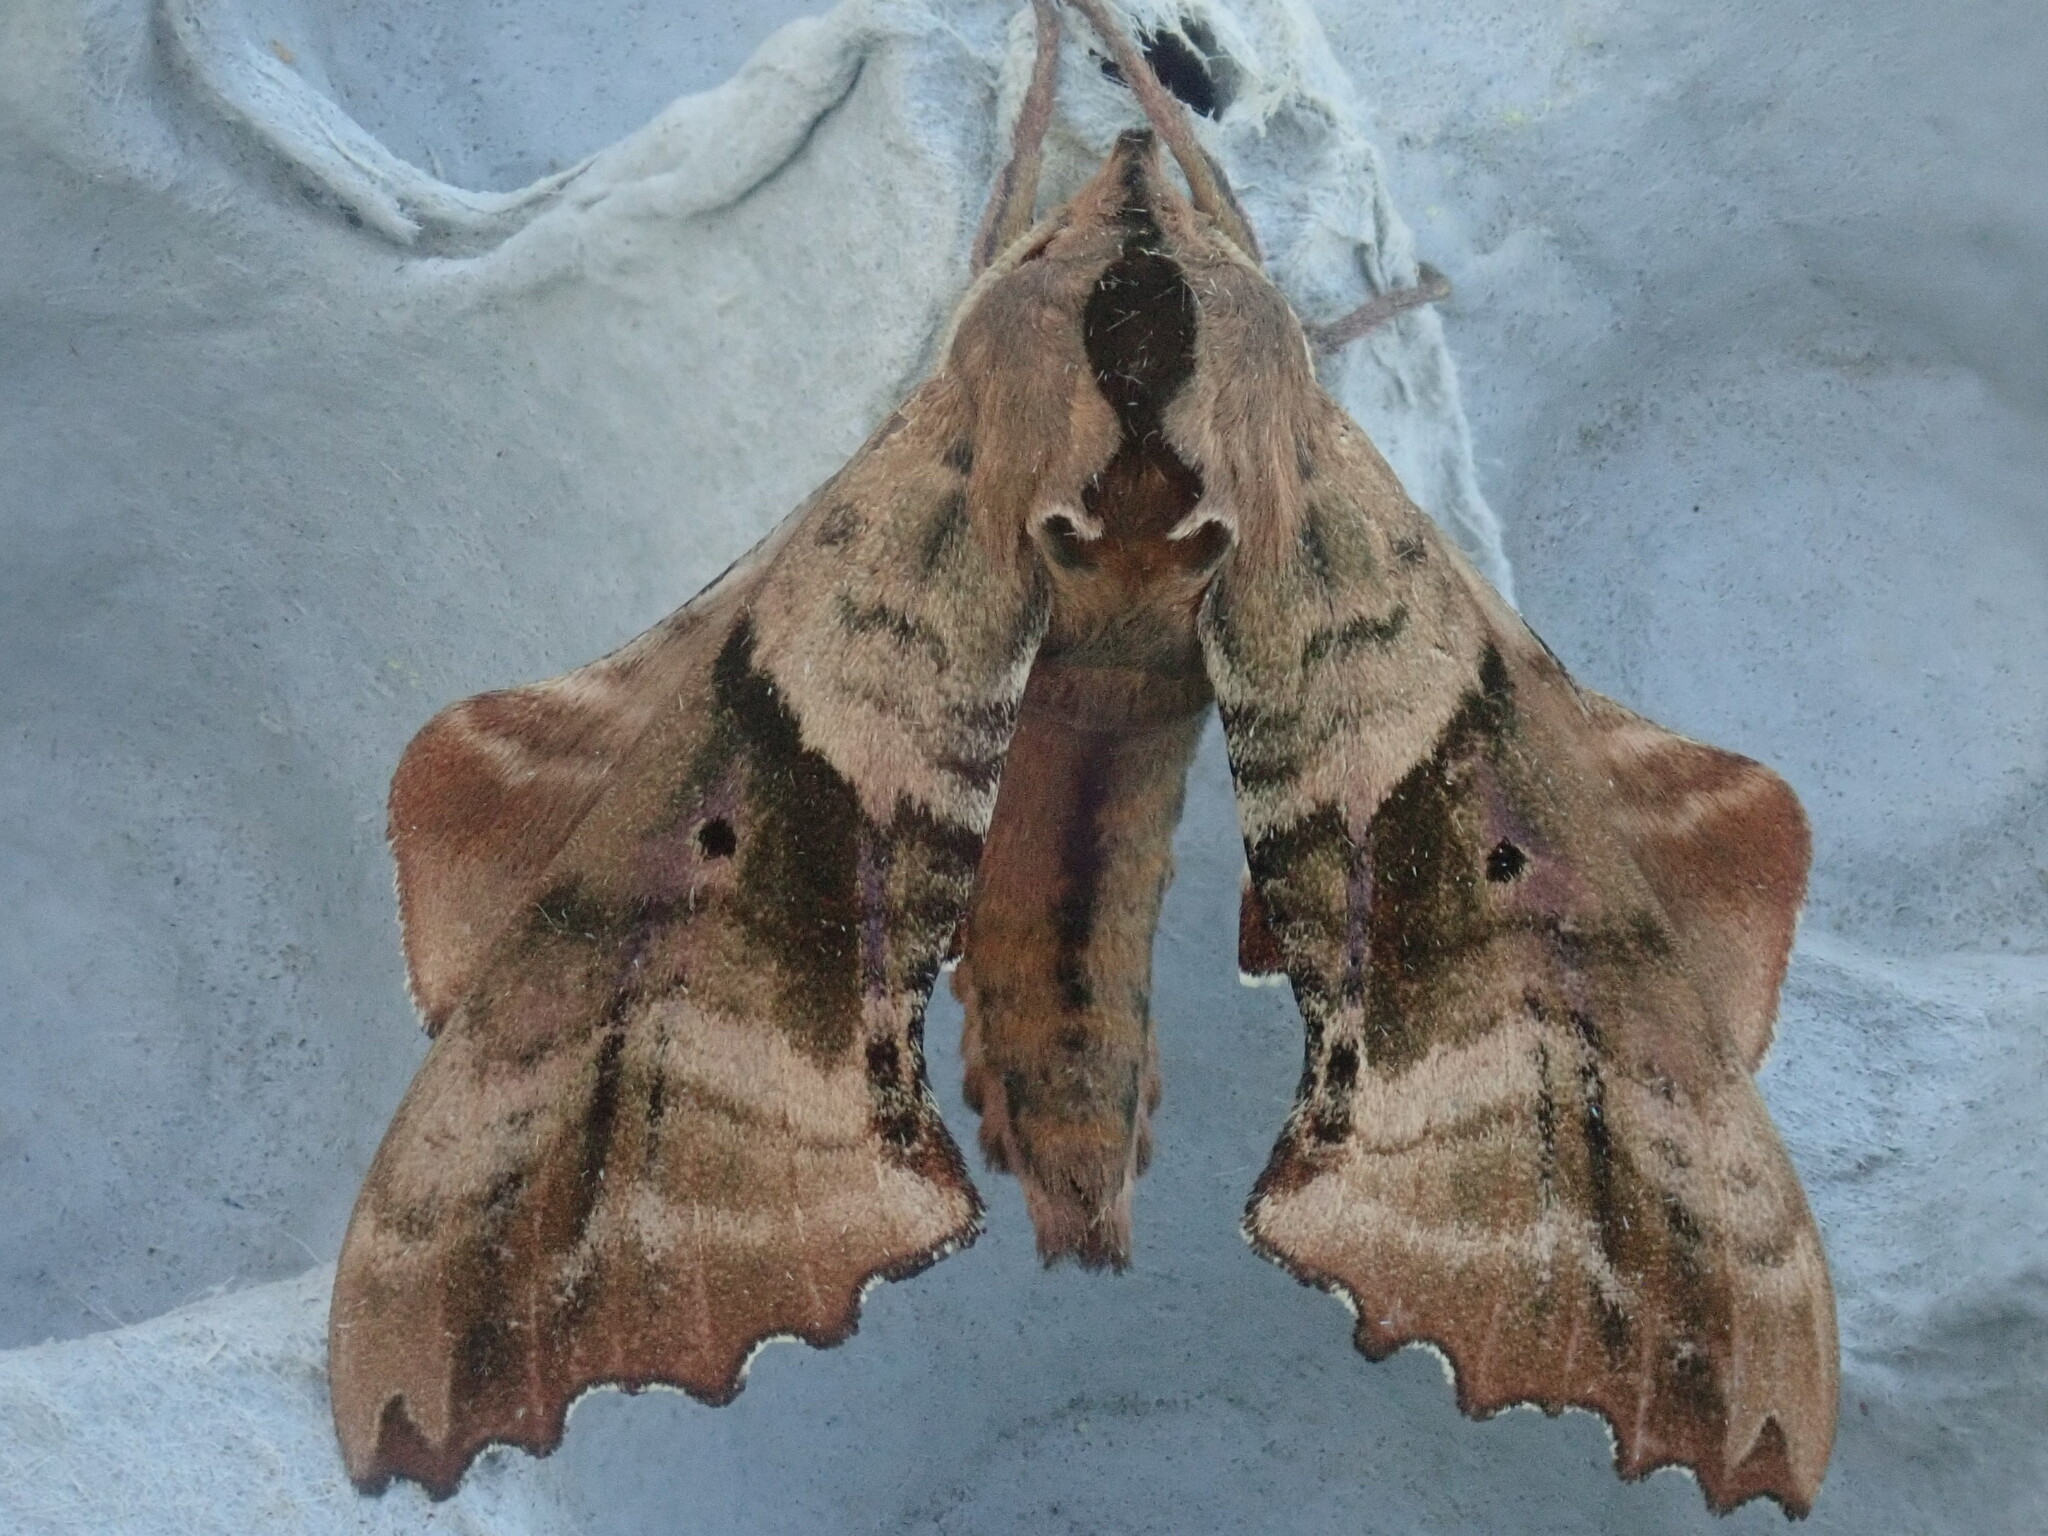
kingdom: Animalia
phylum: Arthropoda
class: Insecta
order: Lepidoptera
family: Sphingidae
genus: Paonias
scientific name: Paonias excaecata
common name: Blind-eyed sphinx
